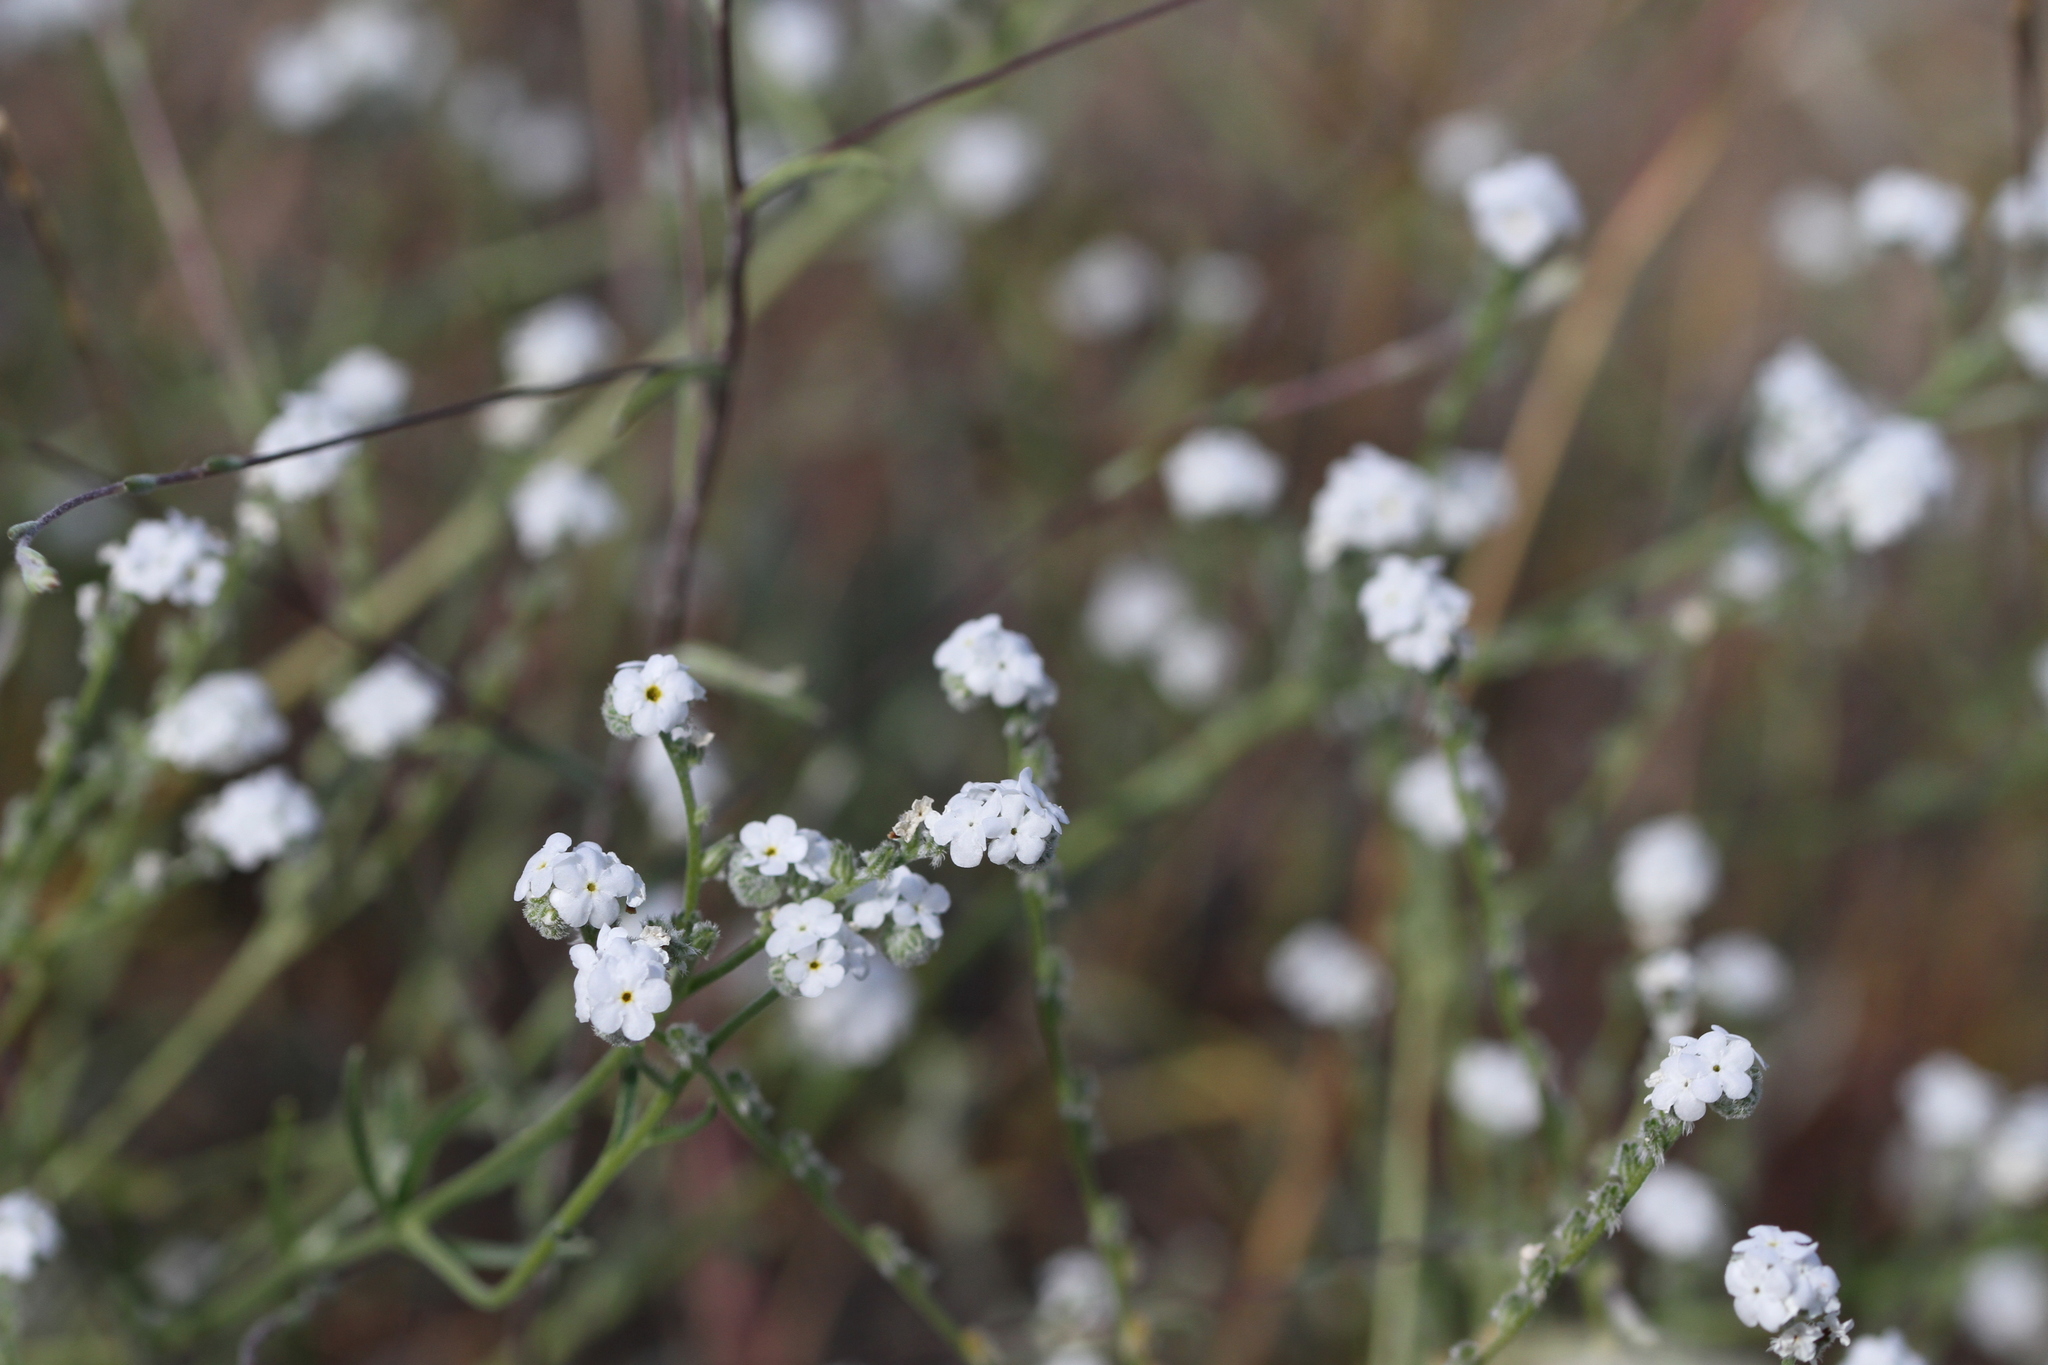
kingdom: Plantae
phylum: Tracheophyta
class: Magnoliopsida
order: Boraginales
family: Boraginaceae
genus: Cryptantha
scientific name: Cryptantha flaccida
